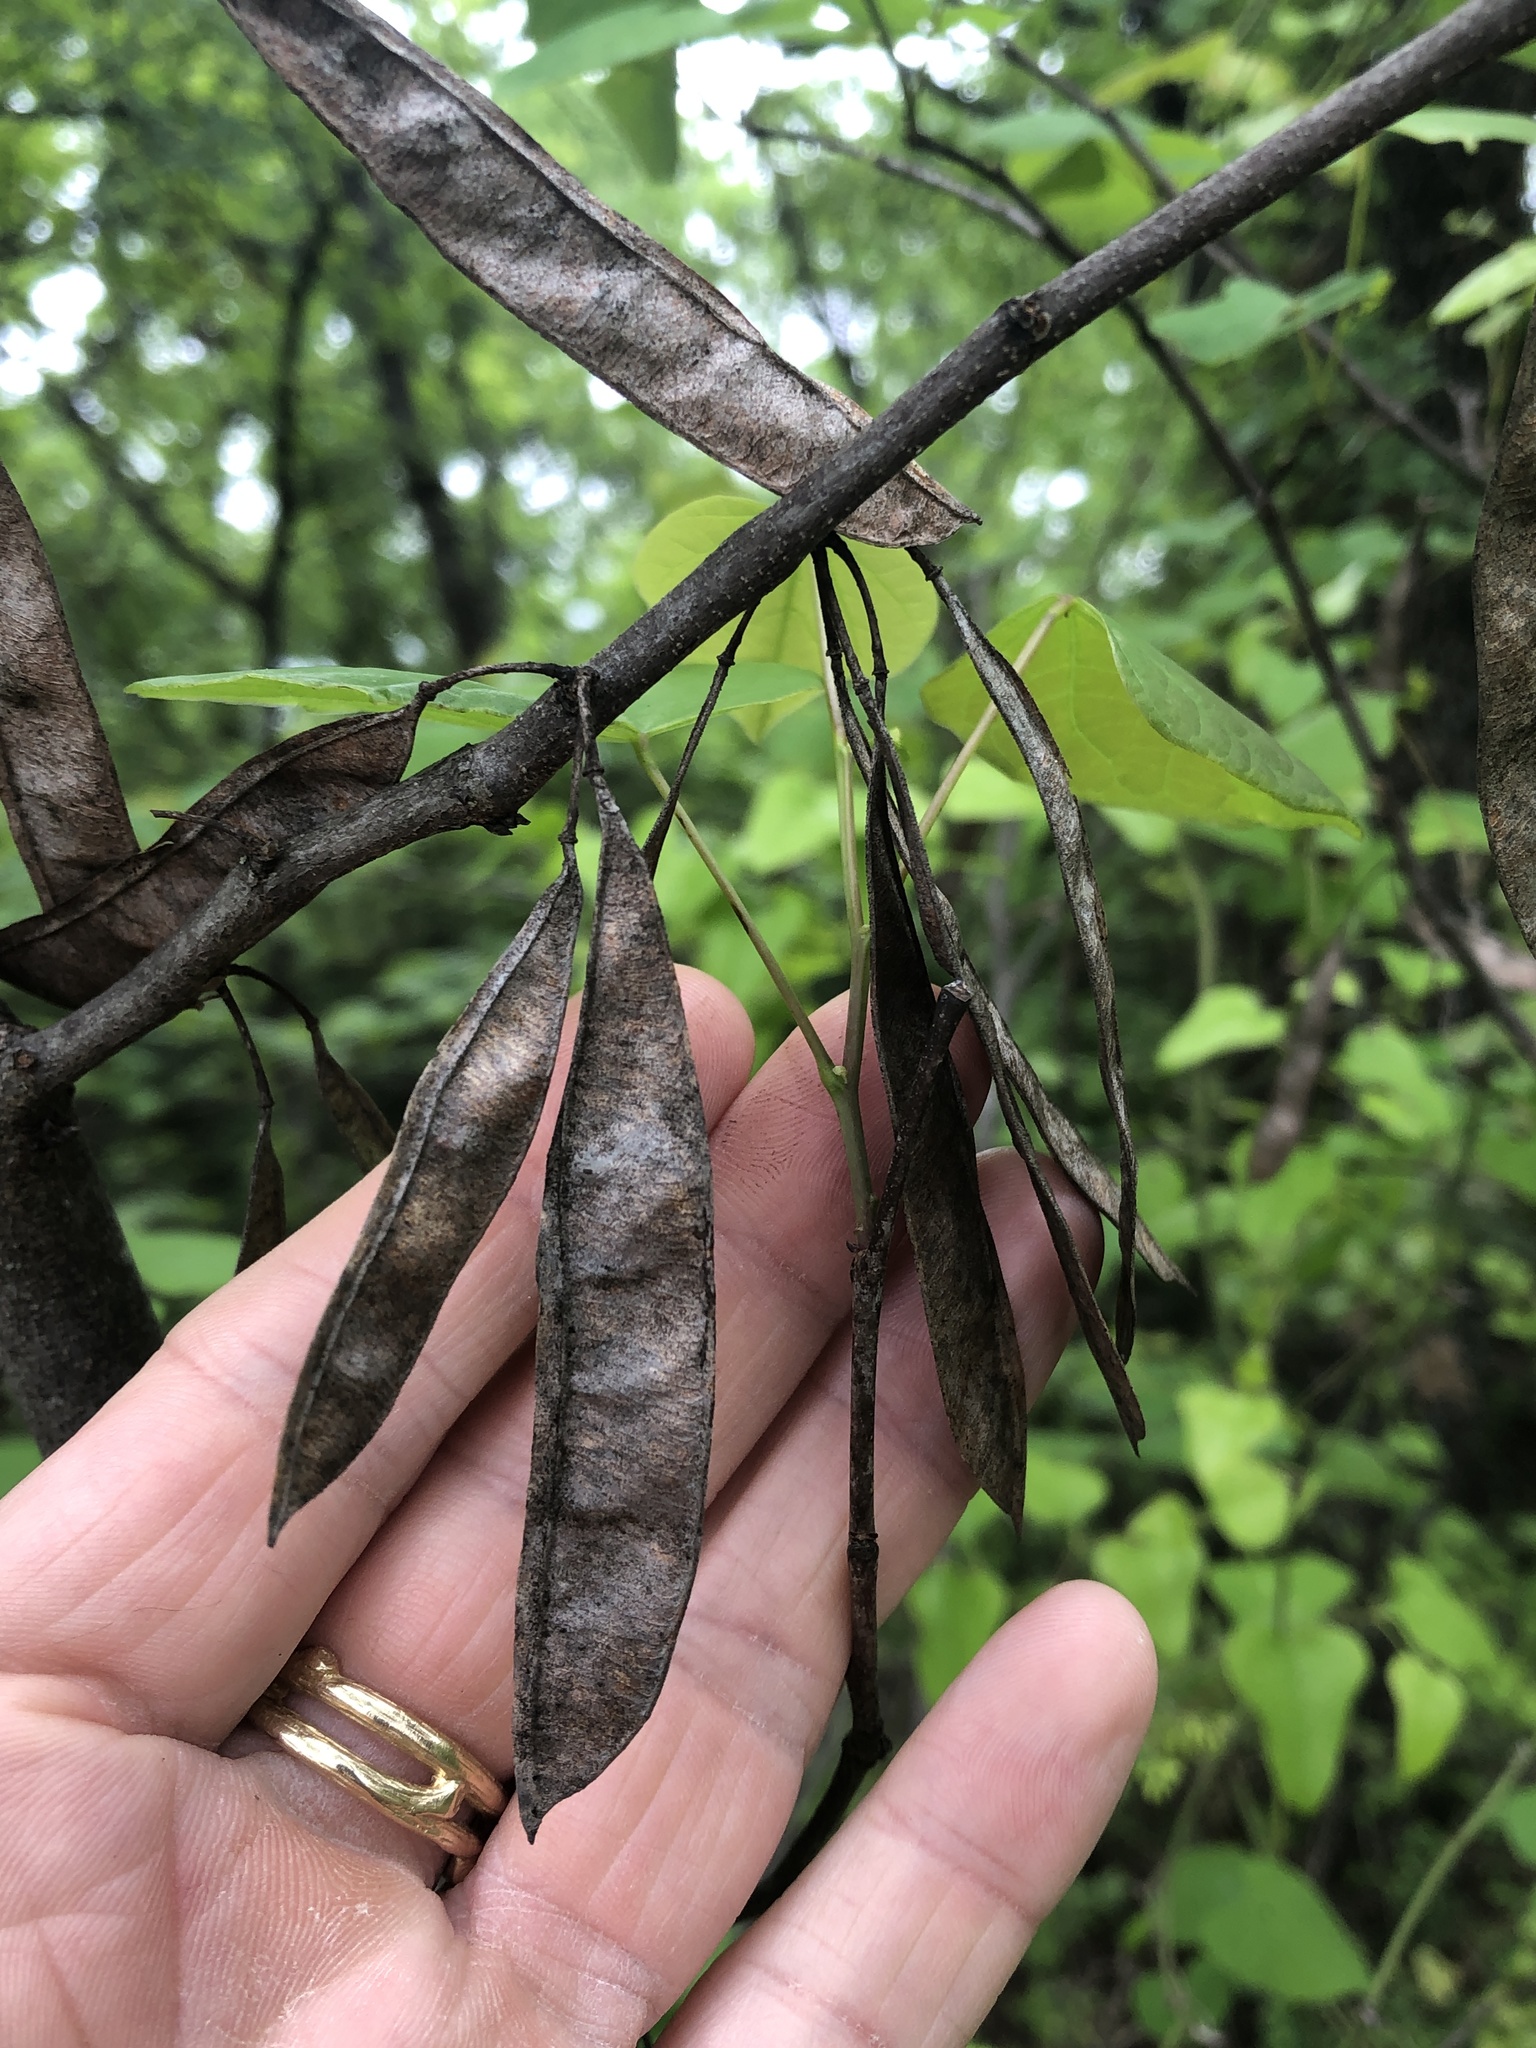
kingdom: Plantae
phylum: Tracheophyta
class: Magnoliopsida
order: Fabales
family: Fabaceae
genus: Cercis
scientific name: Cercis canadensis
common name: Eastern redbud
